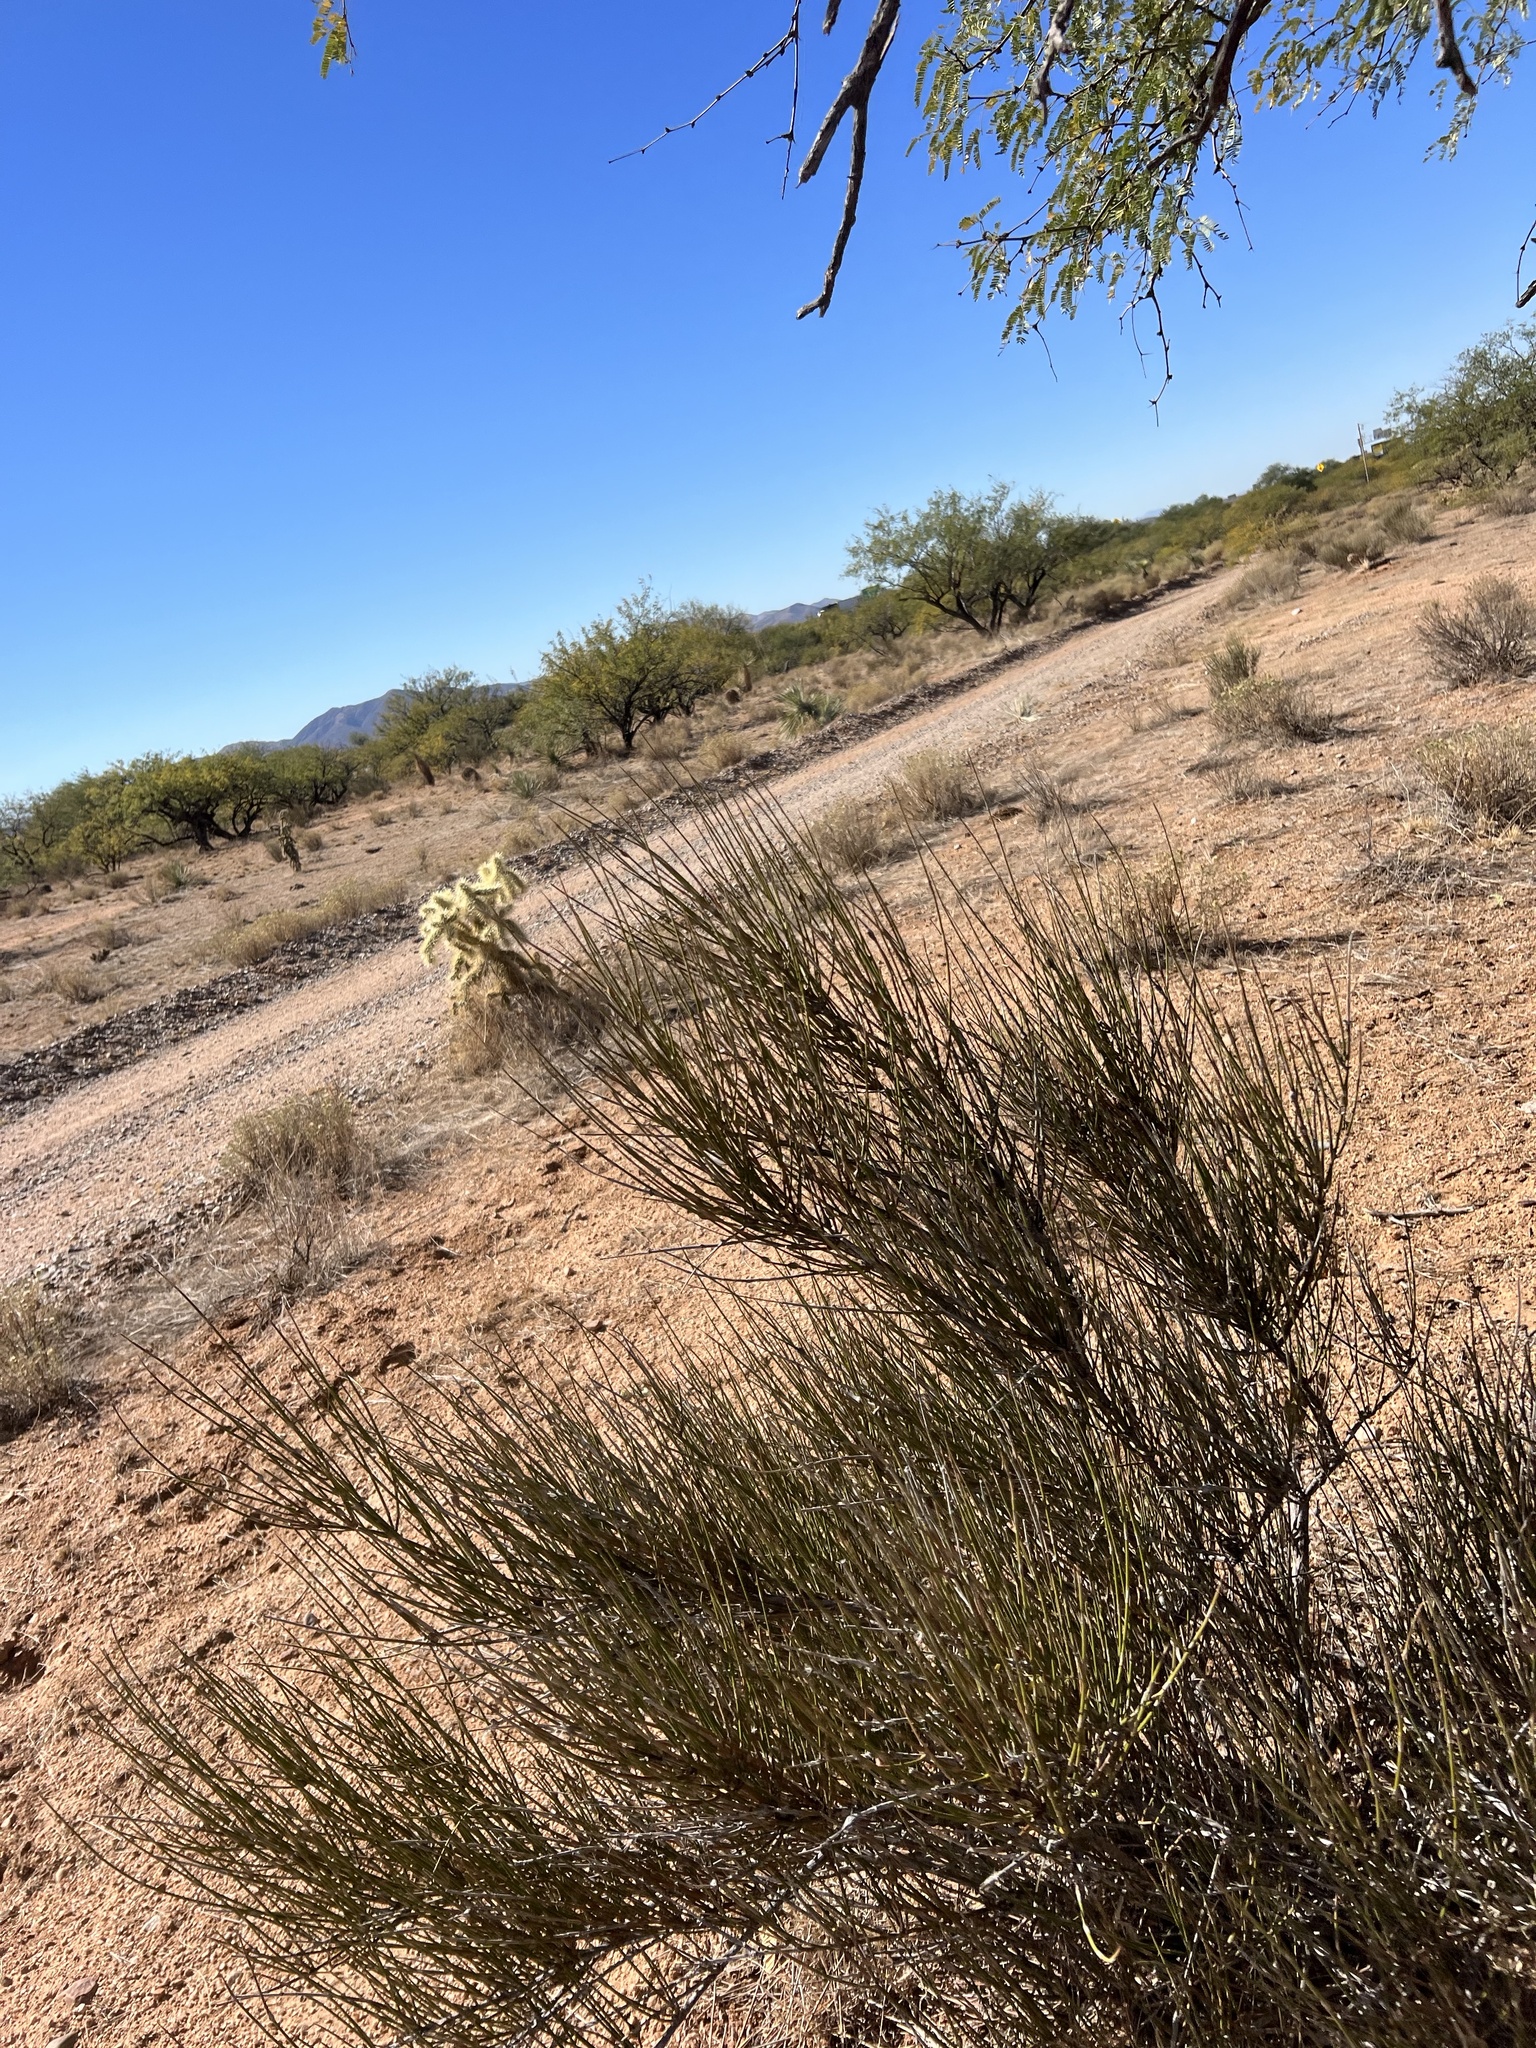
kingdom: Plantae
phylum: Tracheophyta
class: Gnetopsida
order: Ephedrales
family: Ephedraceae
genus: Ephedra
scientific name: Ephedra trifurca
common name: Mexican-tea
